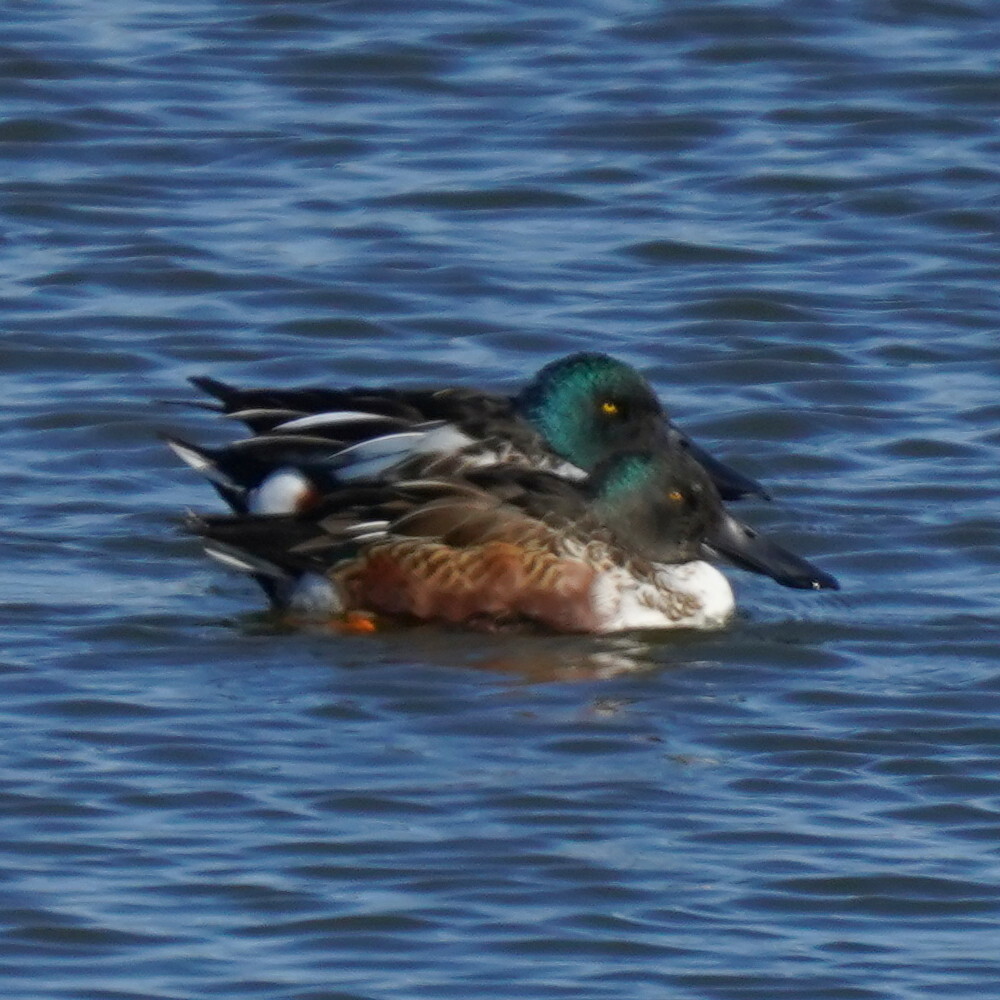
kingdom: Animalia
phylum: Chordata
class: Aves
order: Anseriformes
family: Anatidae
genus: Spatula
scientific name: Spatula clypeata
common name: Northern shoveler
